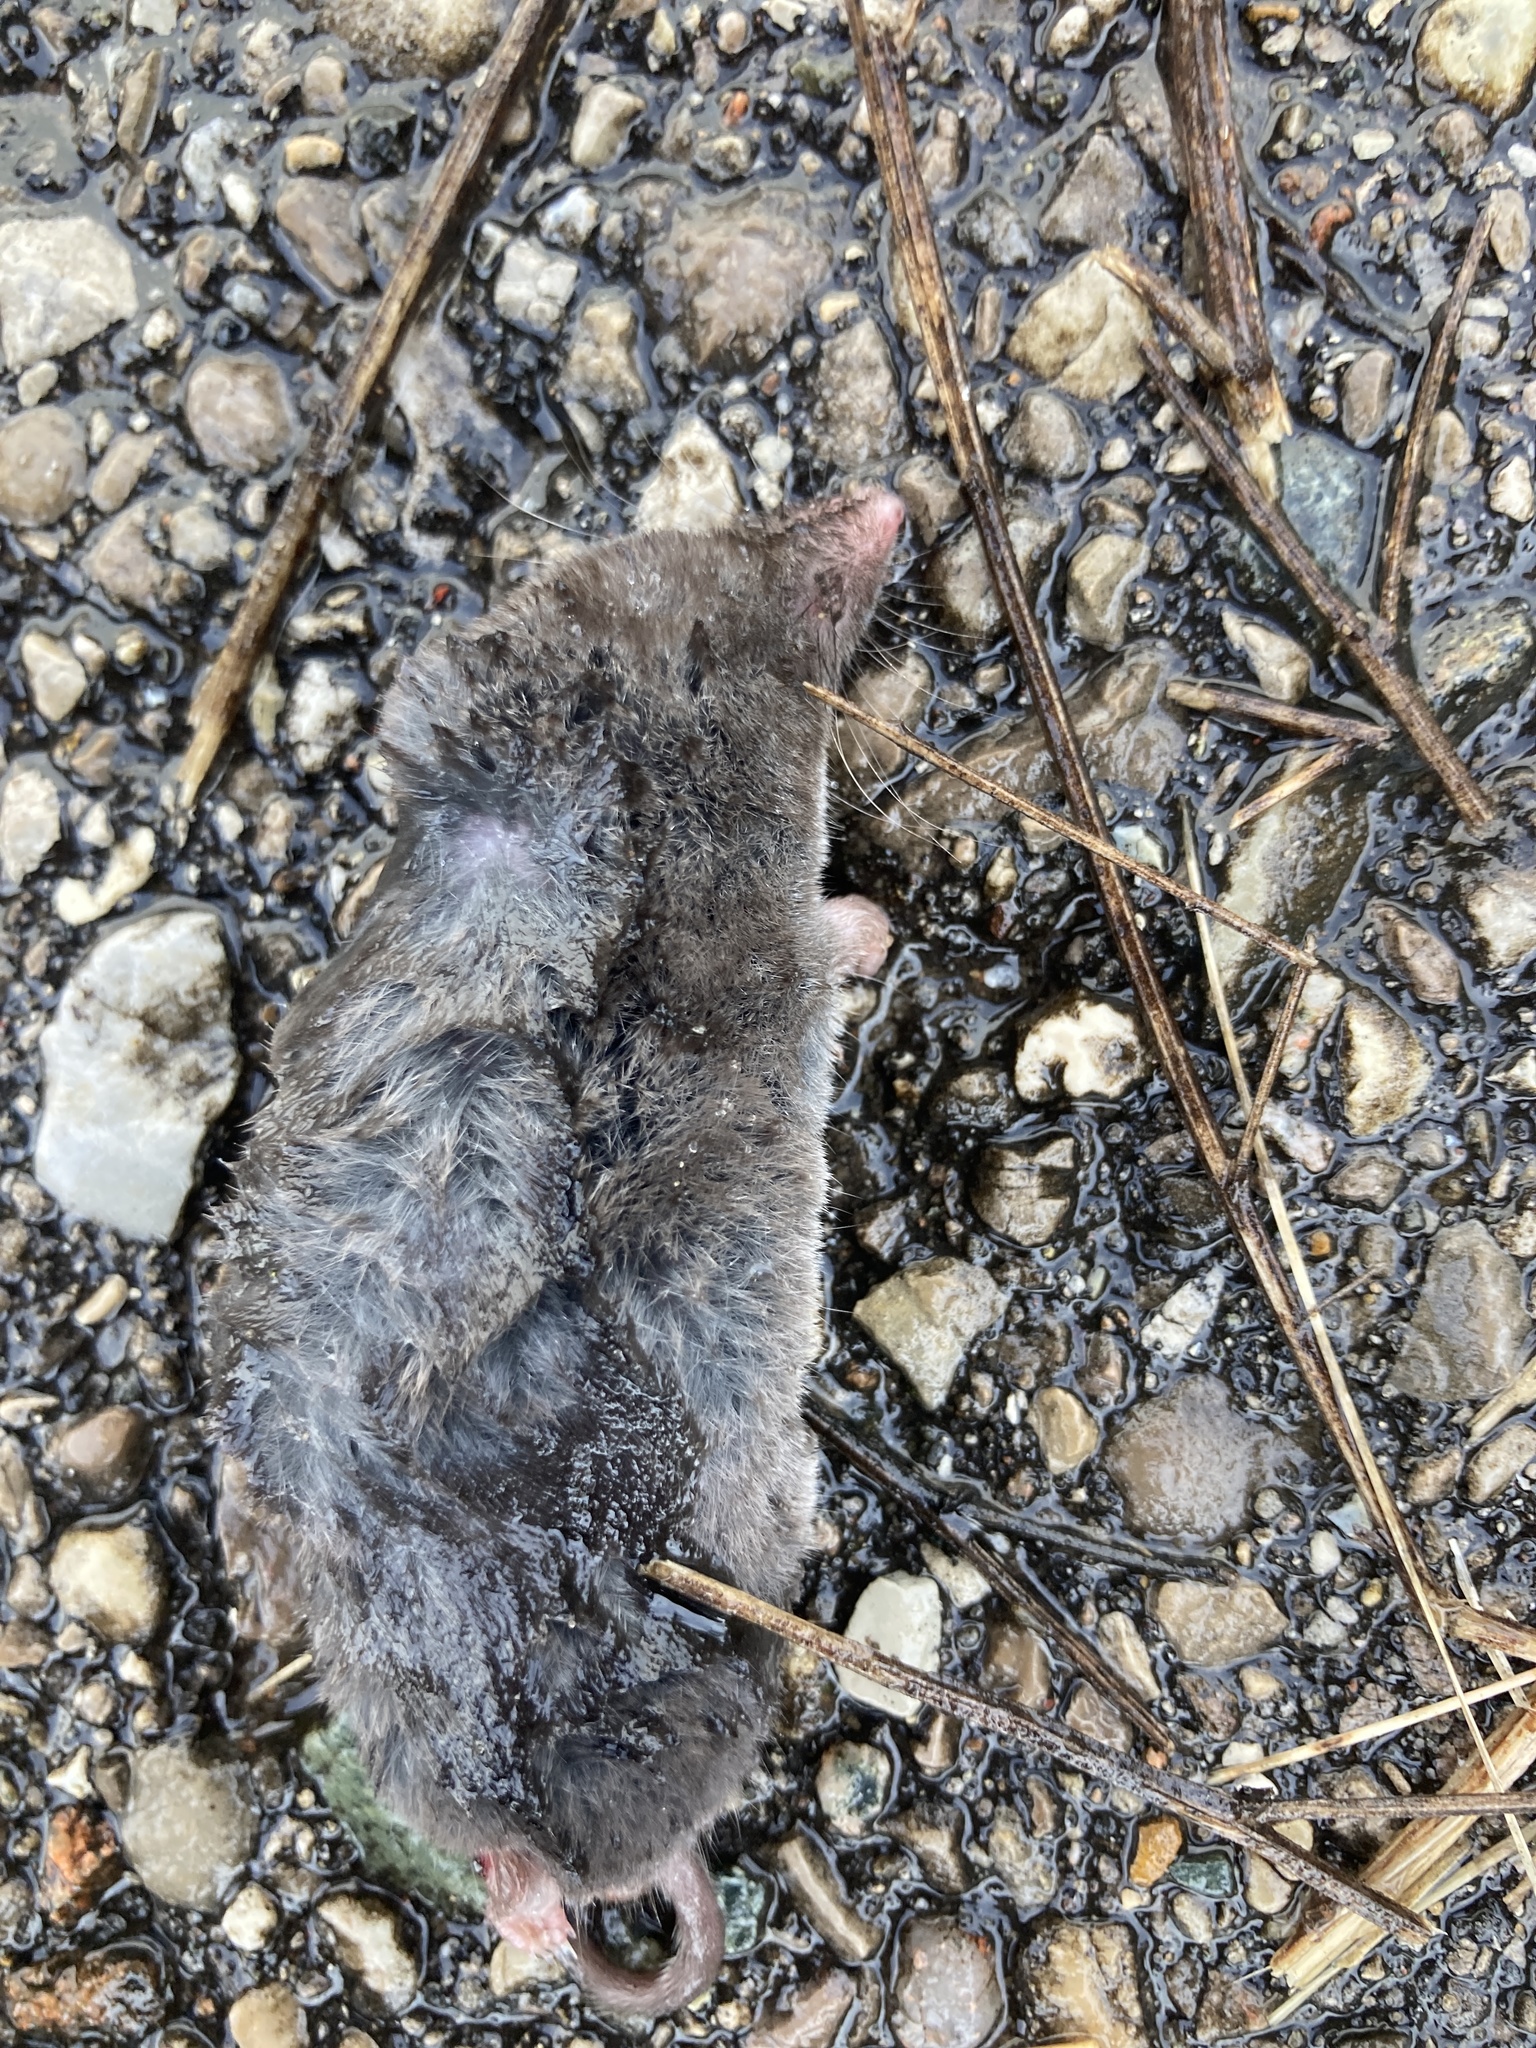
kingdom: Animalia
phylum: Chordata
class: Mammalia
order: Soricomorpha
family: Soricidae
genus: Blarina
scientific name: Blarina brevicauda
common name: Northern short-tailed shrew
